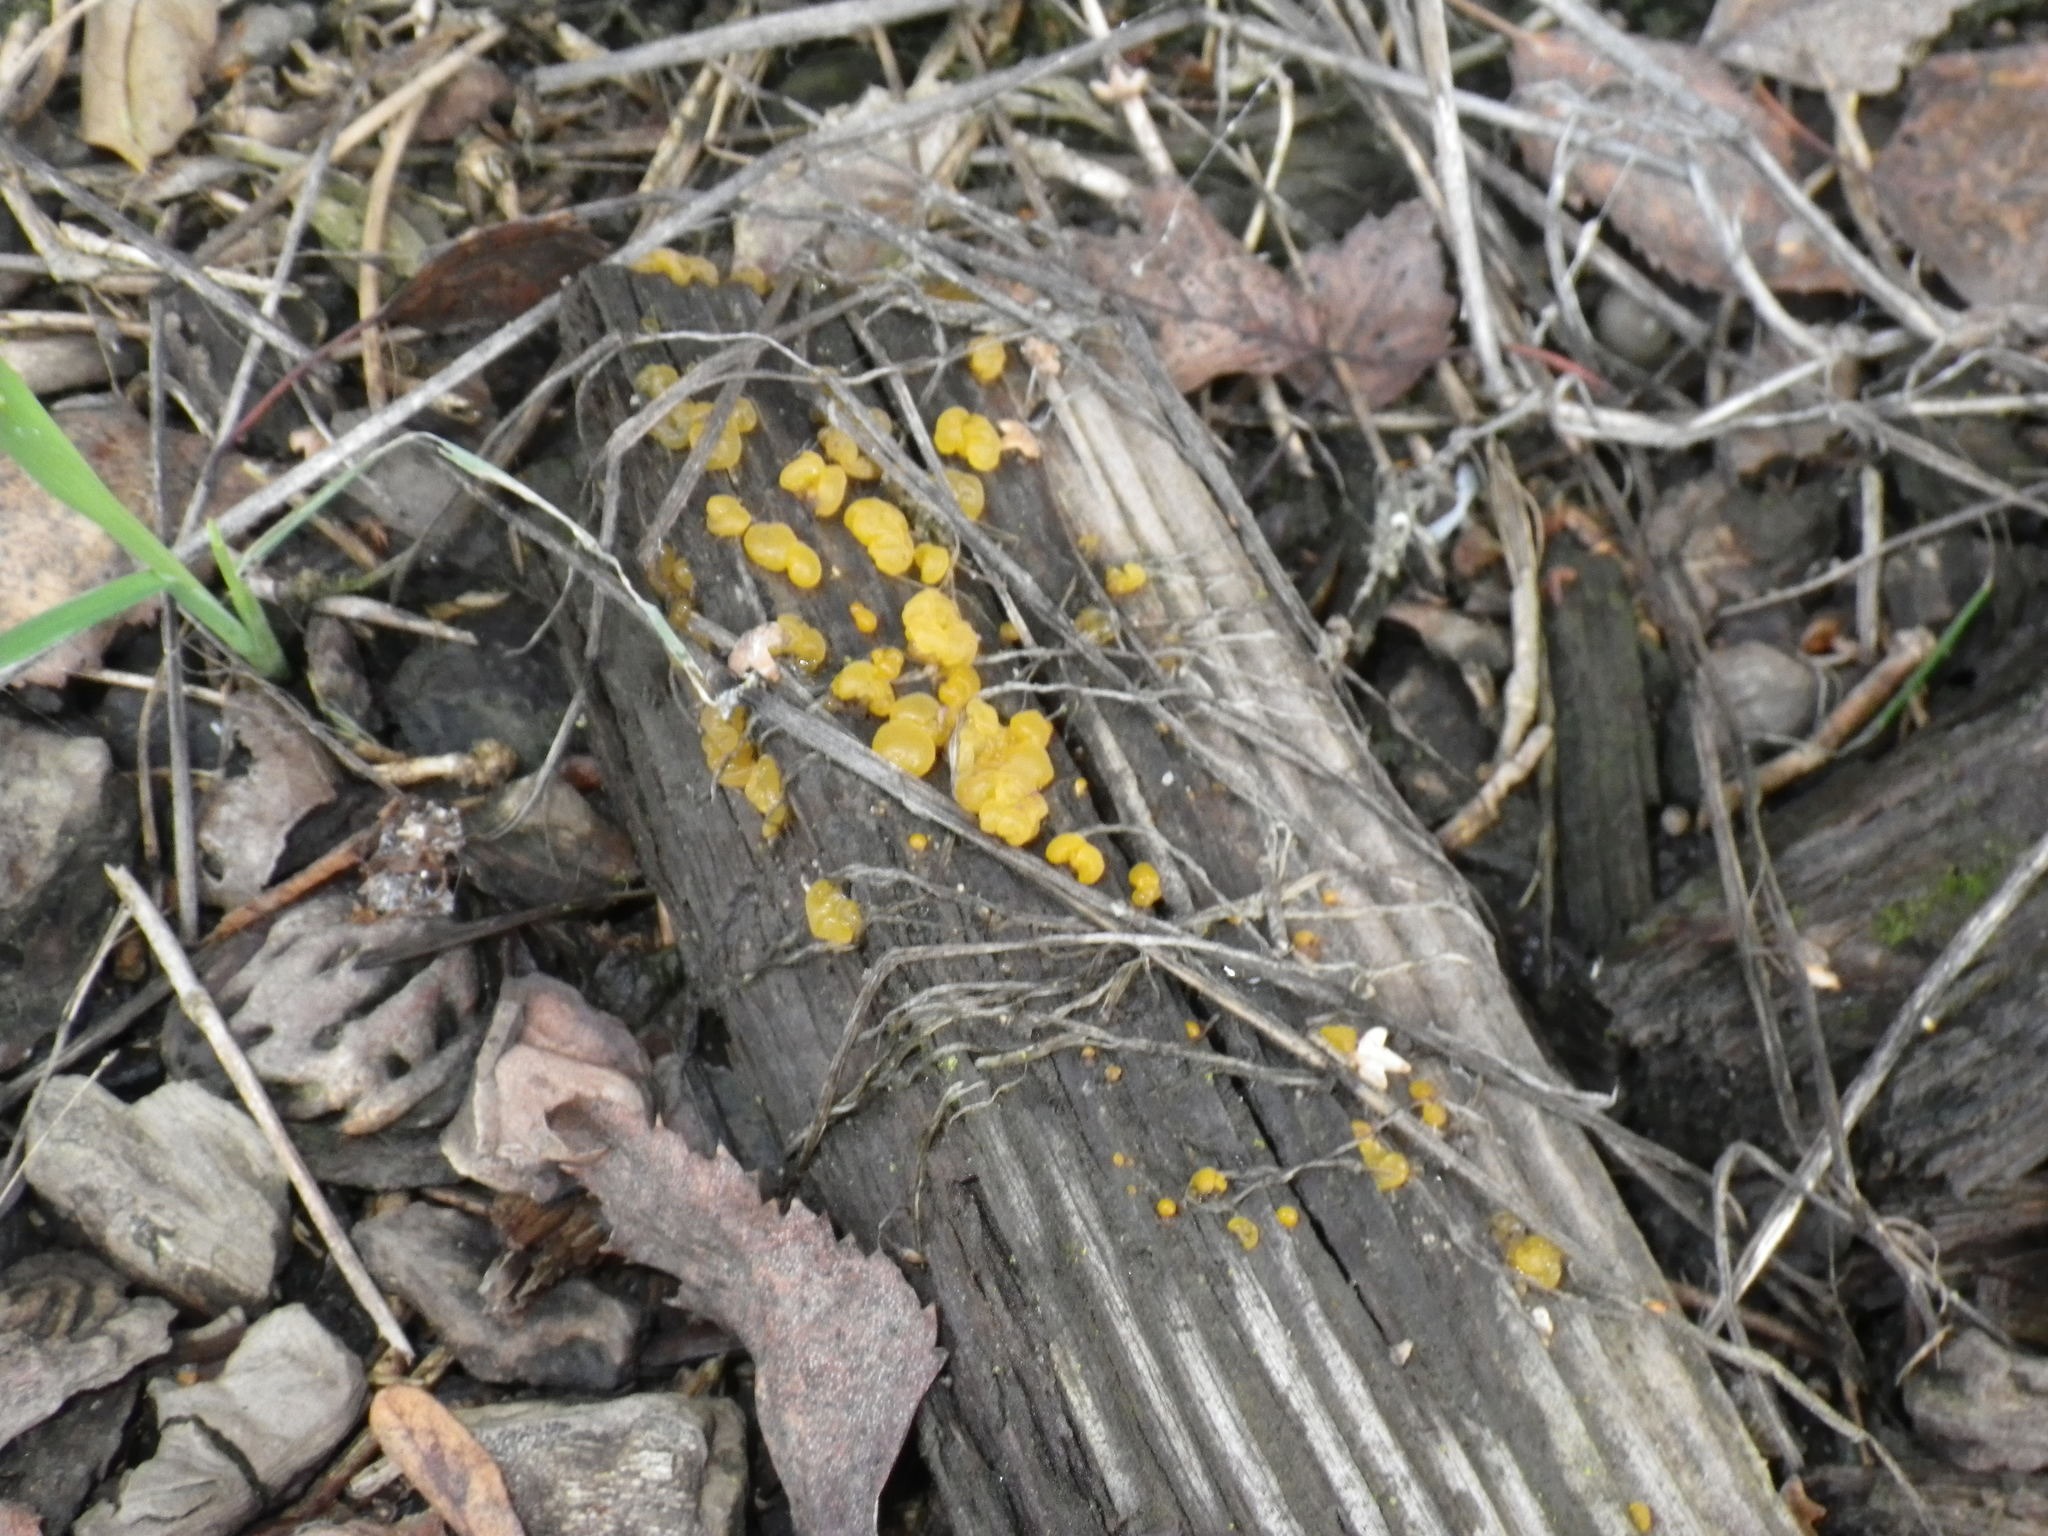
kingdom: Fungi
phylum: Basidiomycota
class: Tremellomycetes
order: Tremellales
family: Tremellaceae
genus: Tremella
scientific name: Tremella mesenterica
